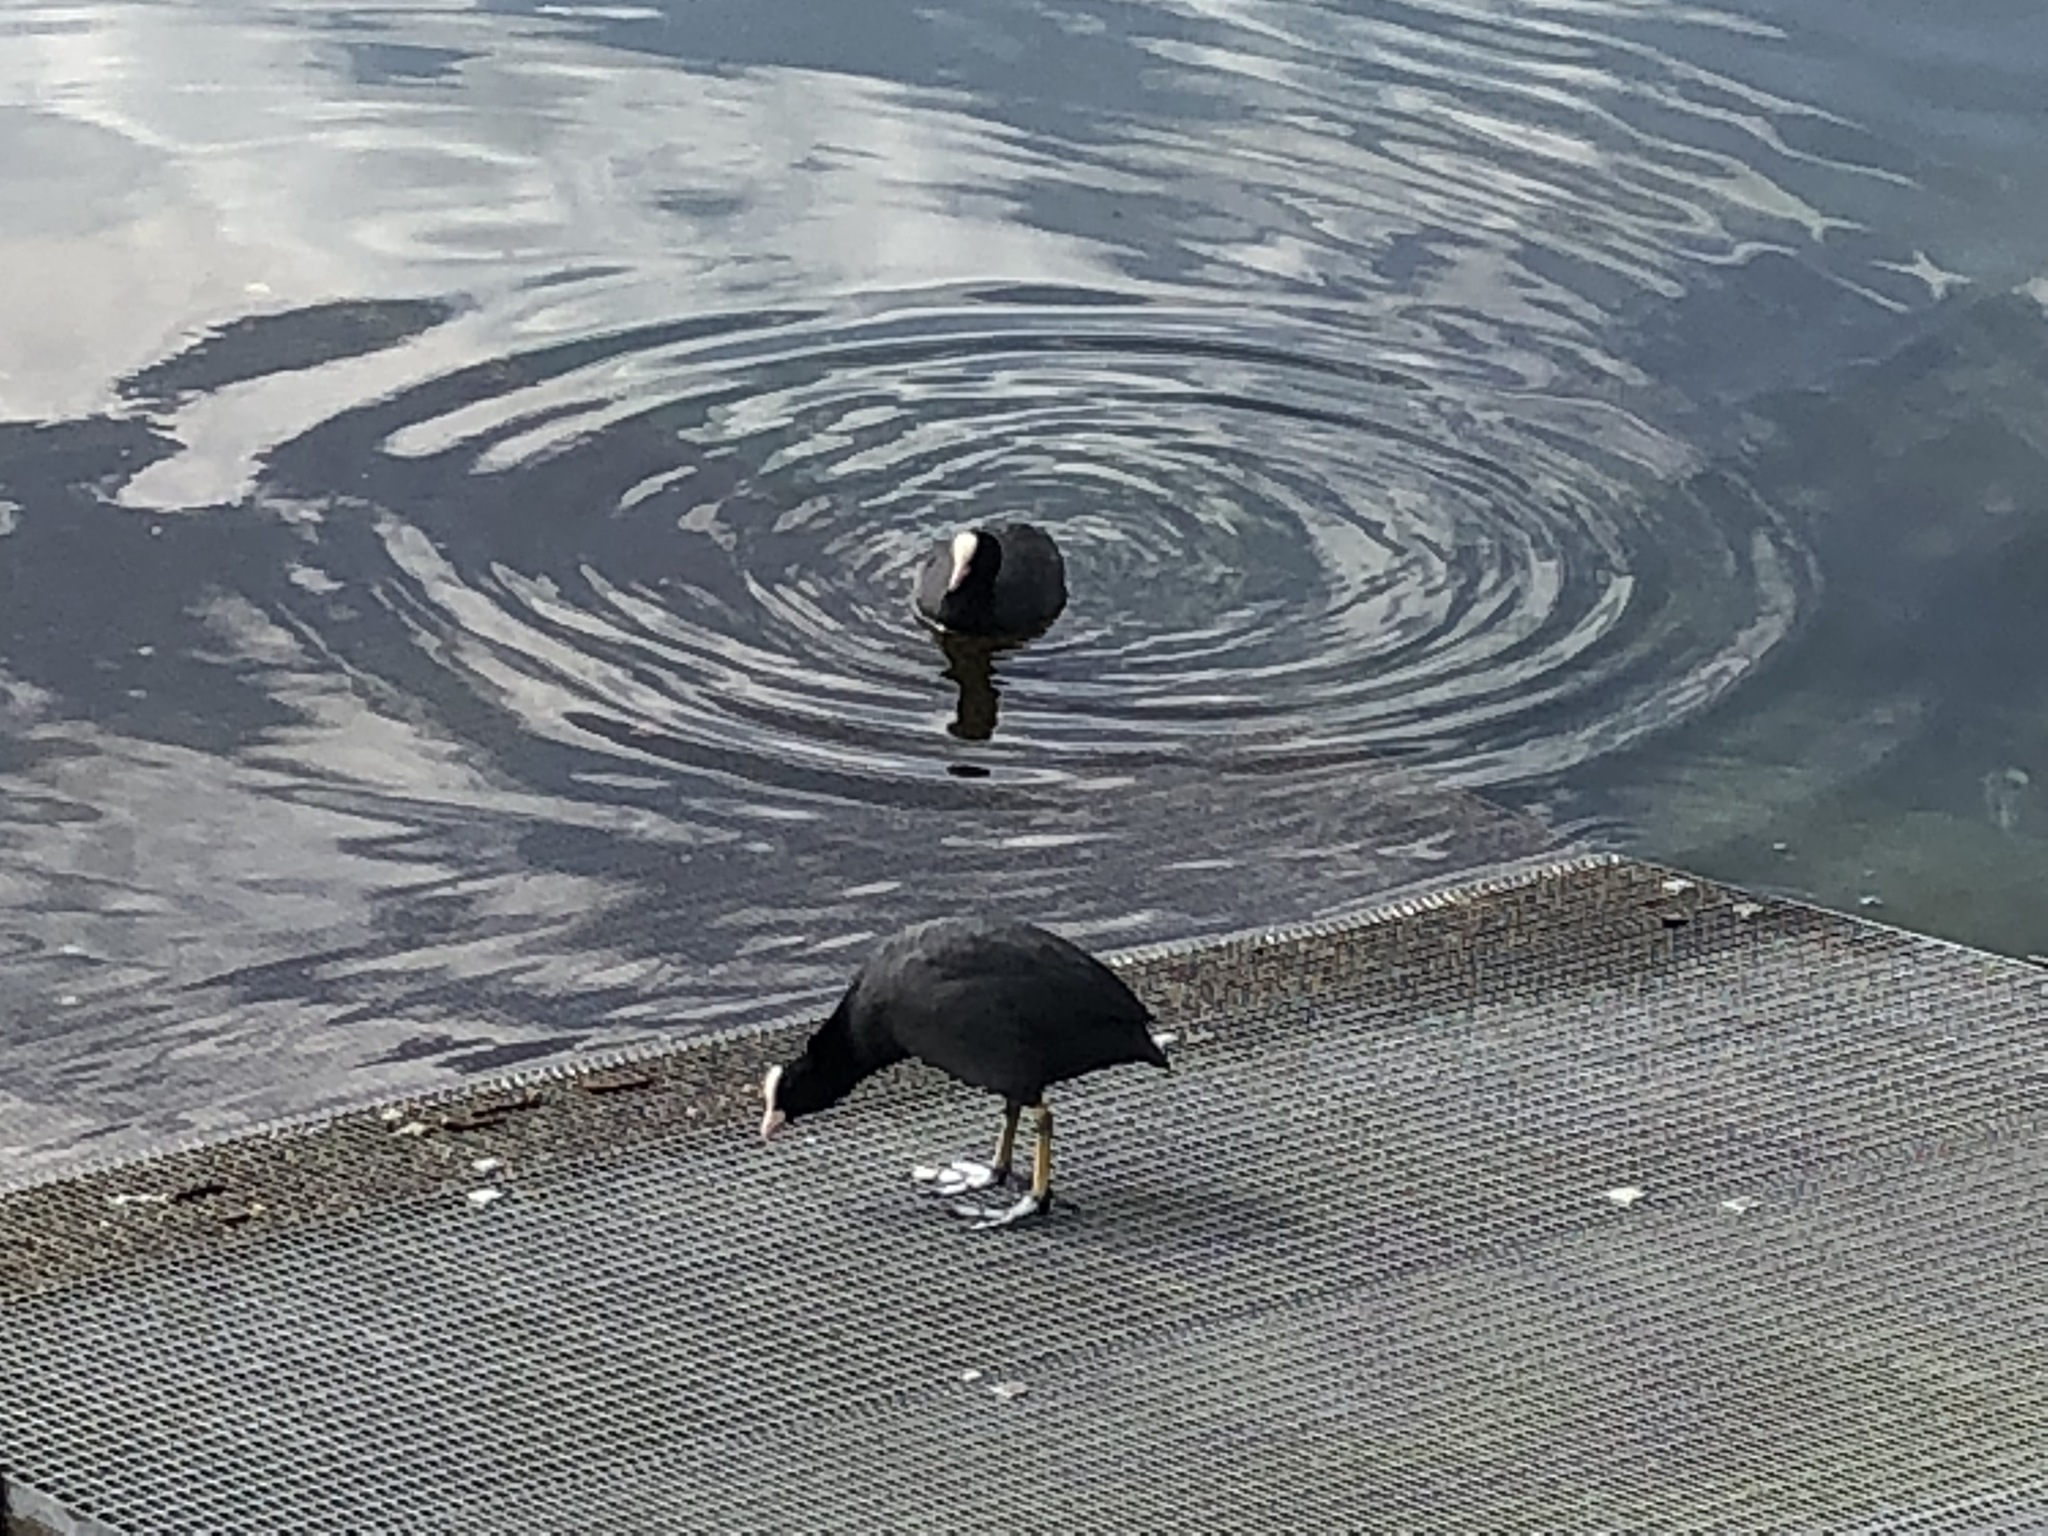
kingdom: Animalia
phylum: Chordata
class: Aves
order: Gruiformes
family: Rallidae
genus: Fulica
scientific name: Fulica atra
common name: Eurasian coot
